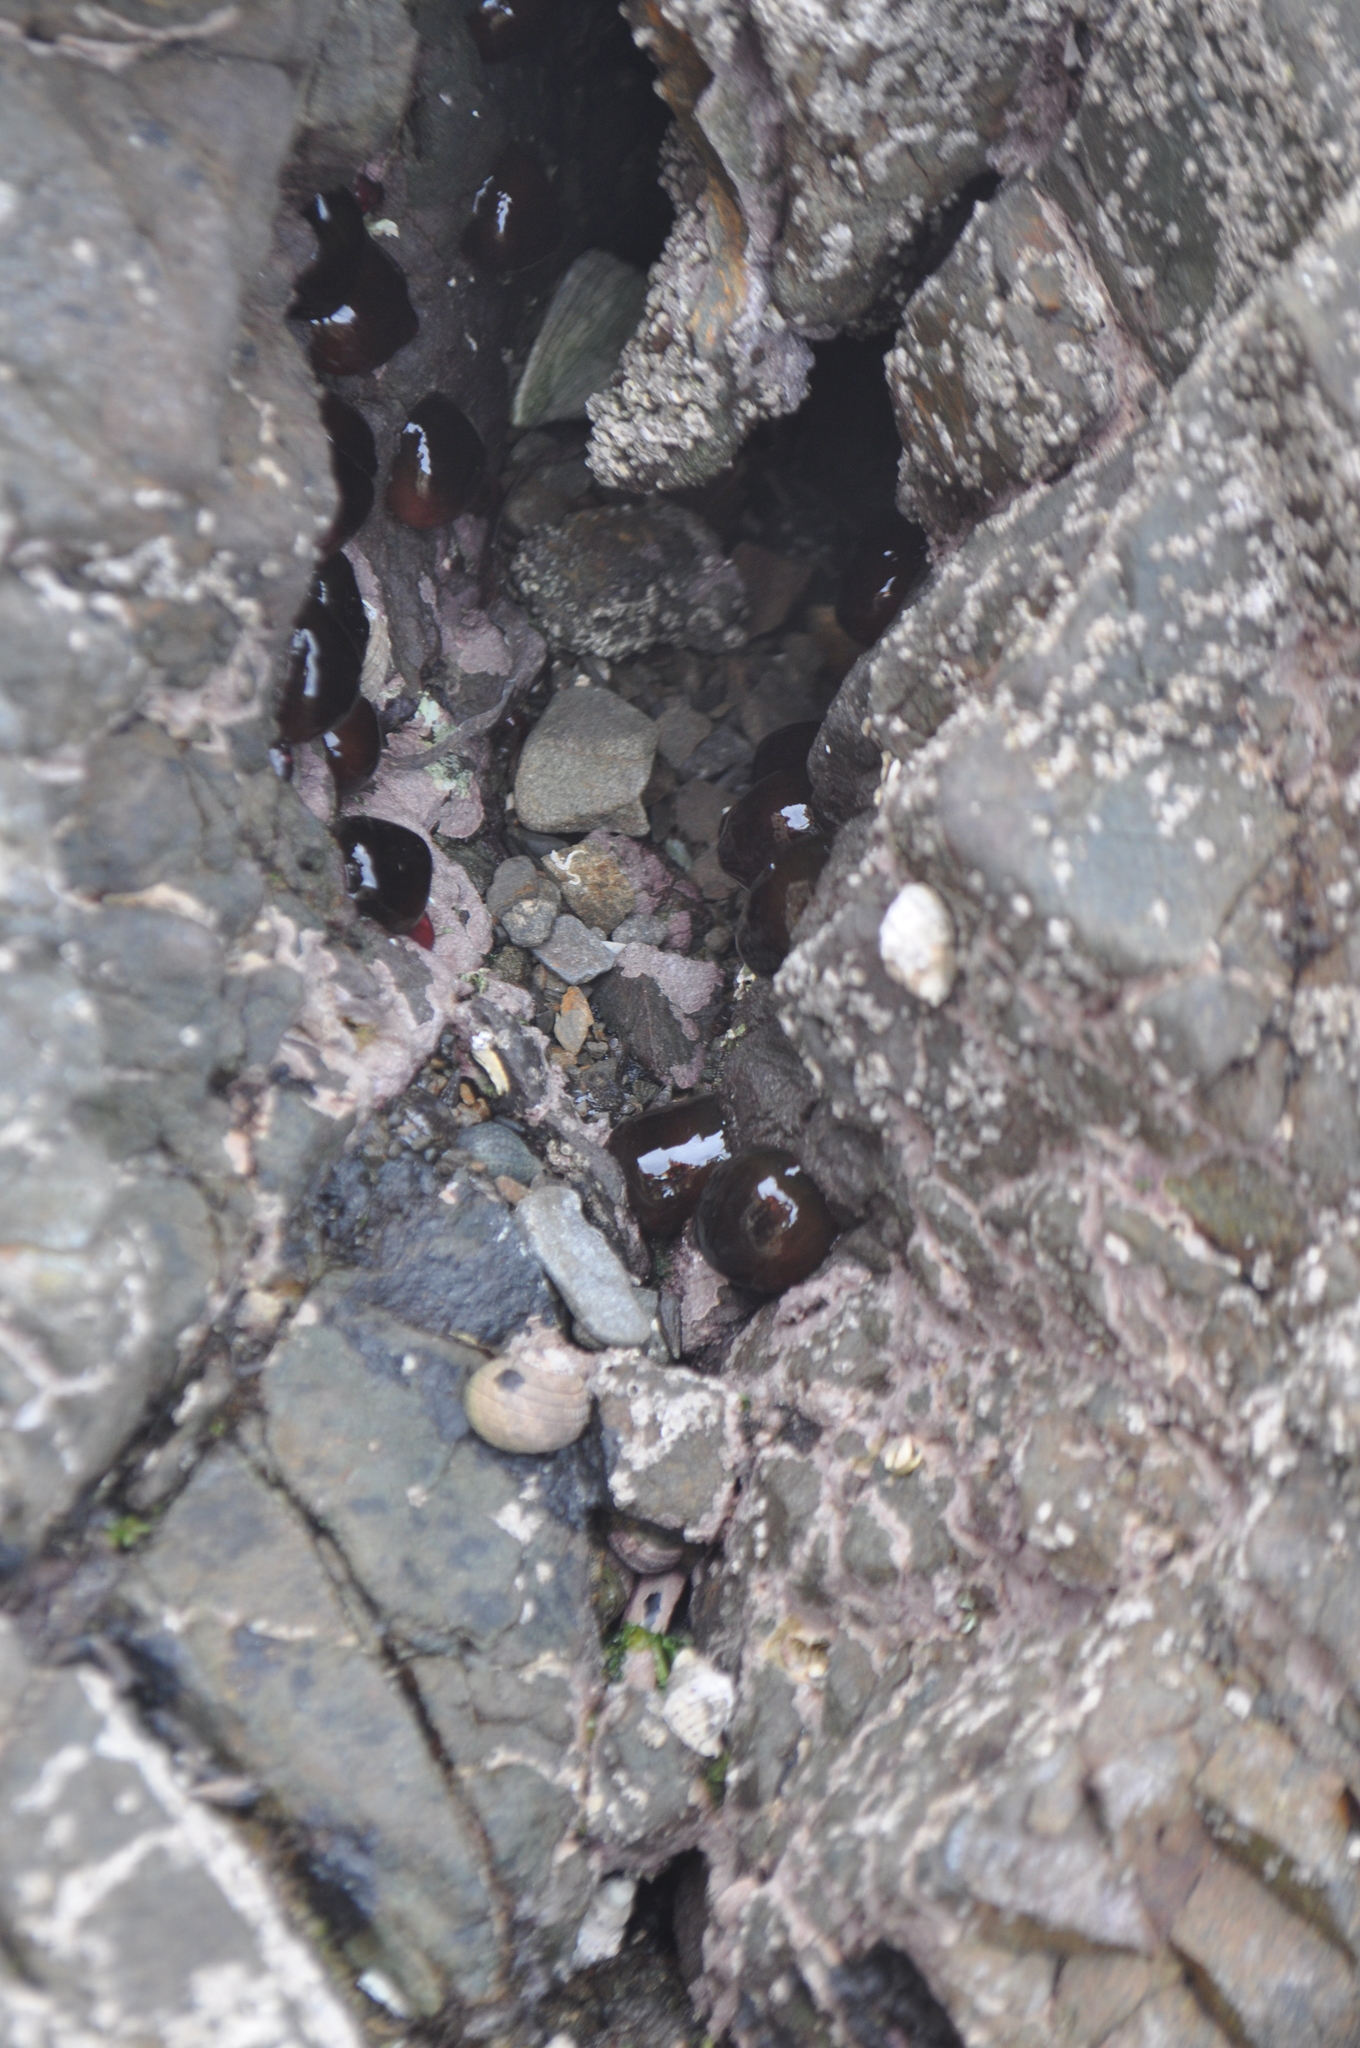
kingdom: Animalia
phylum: Cnidaria
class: Anthozoa
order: Actiniaria
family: Actiniidae
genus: Actinia
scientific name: Actinia tenebrosa
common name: Waratah anemone
